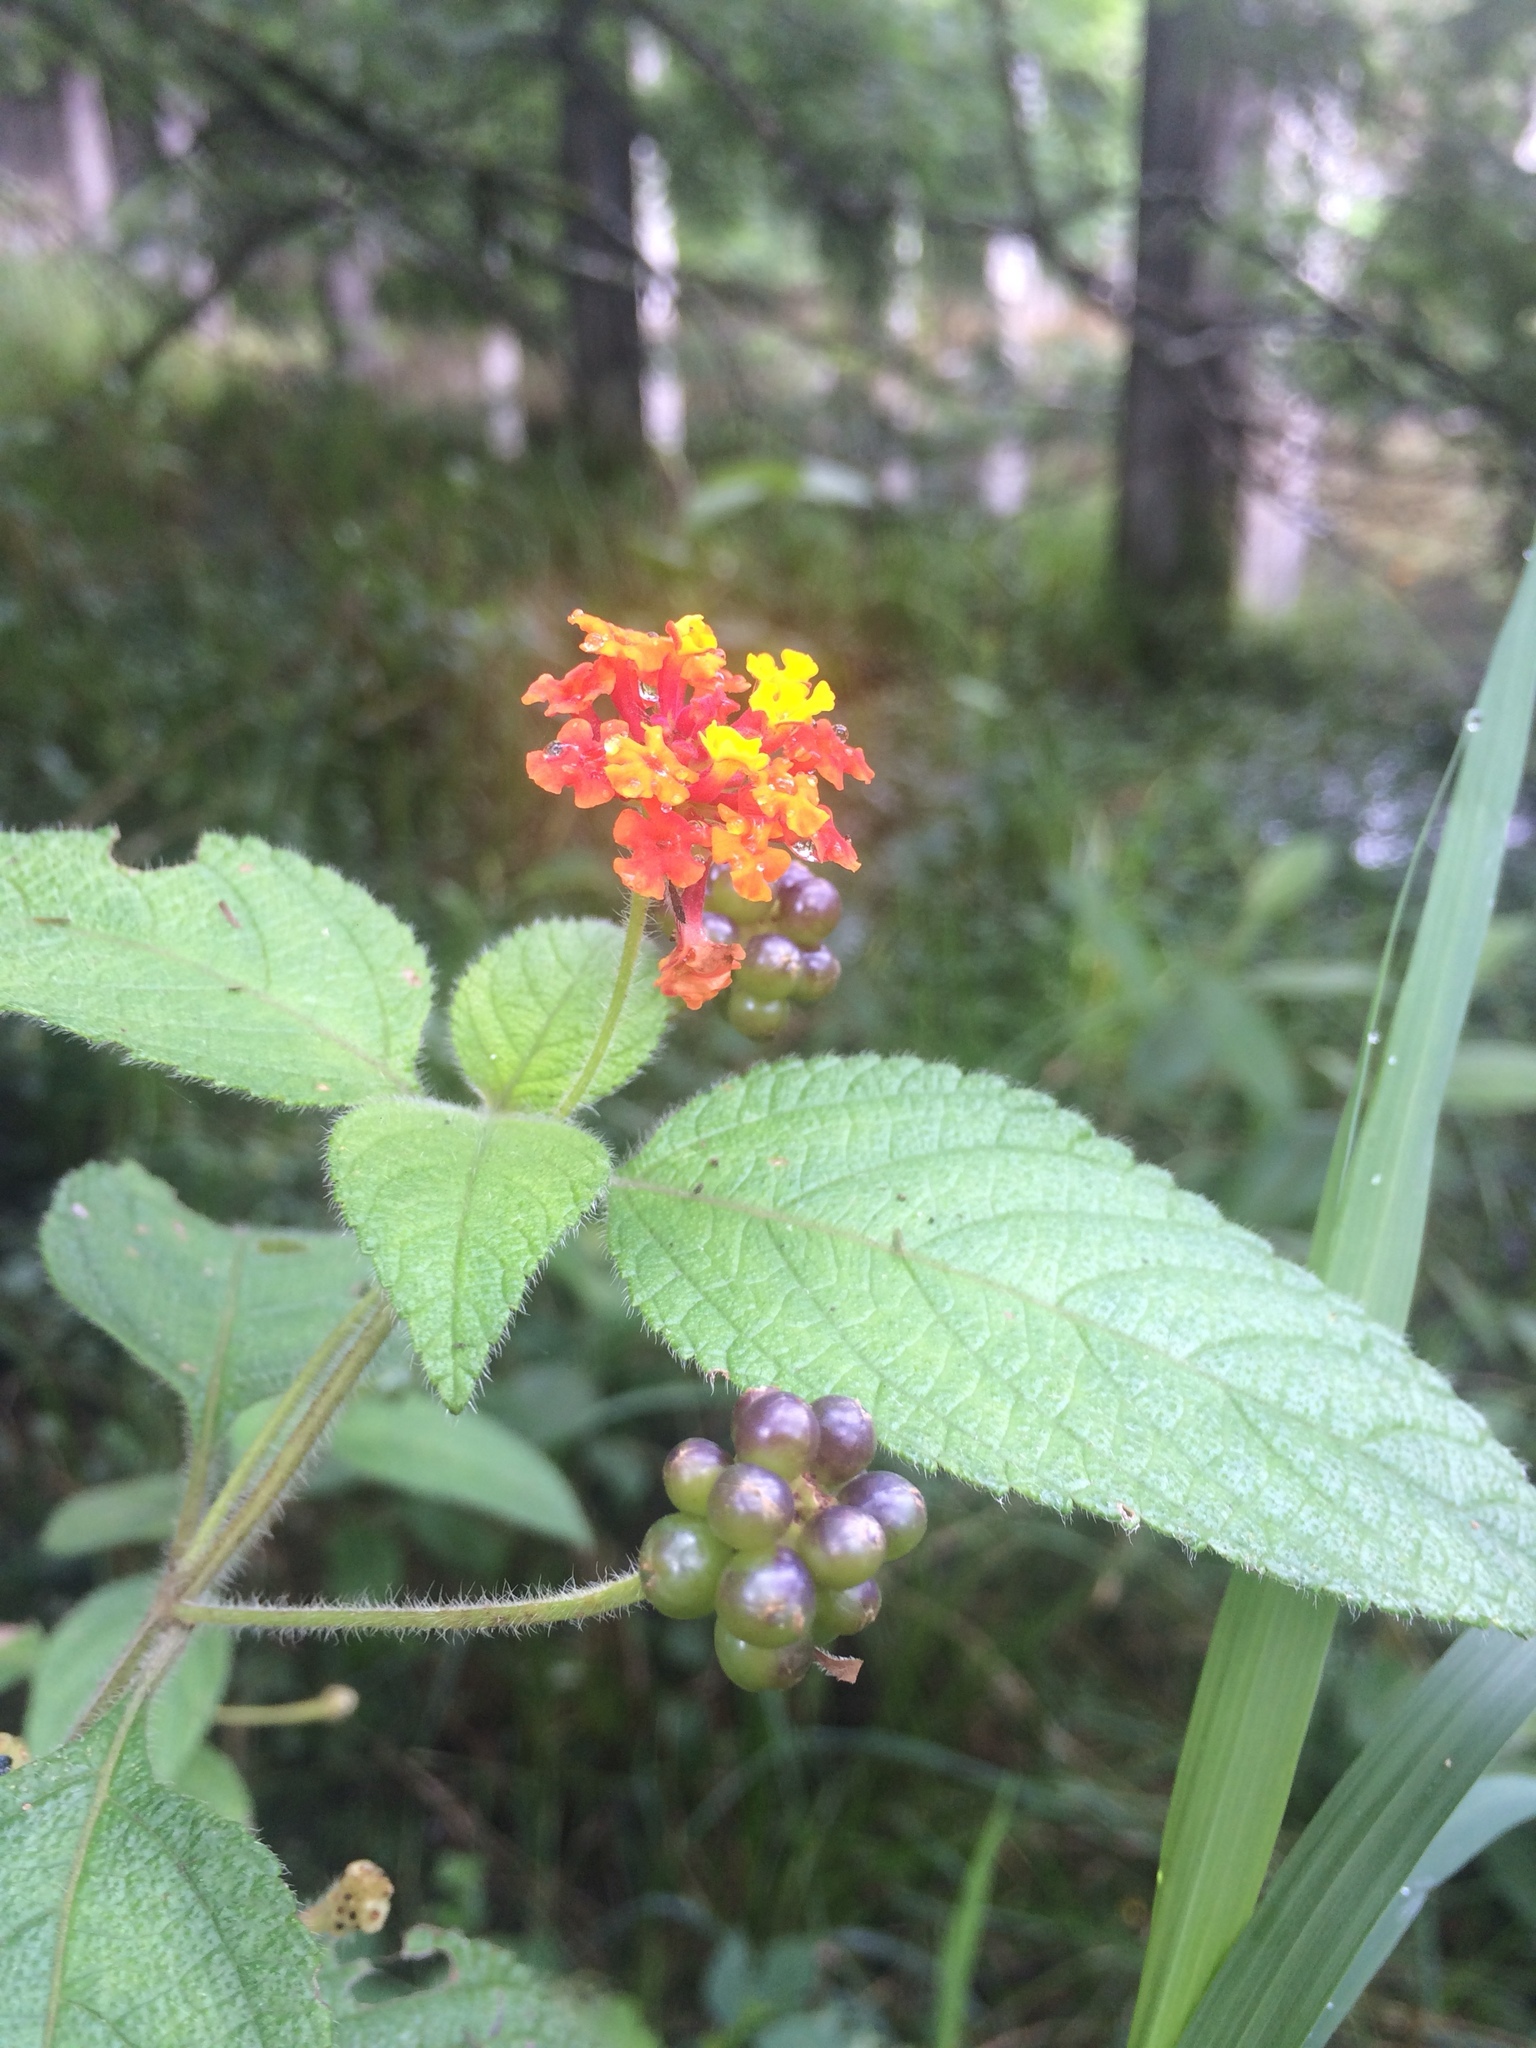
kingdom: Plantae
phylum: Tracheophyta
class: Magnoliopsida
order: Lamiales
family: Verbenaceae
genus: Lantana
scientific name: Lantana camara
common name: Lantana
